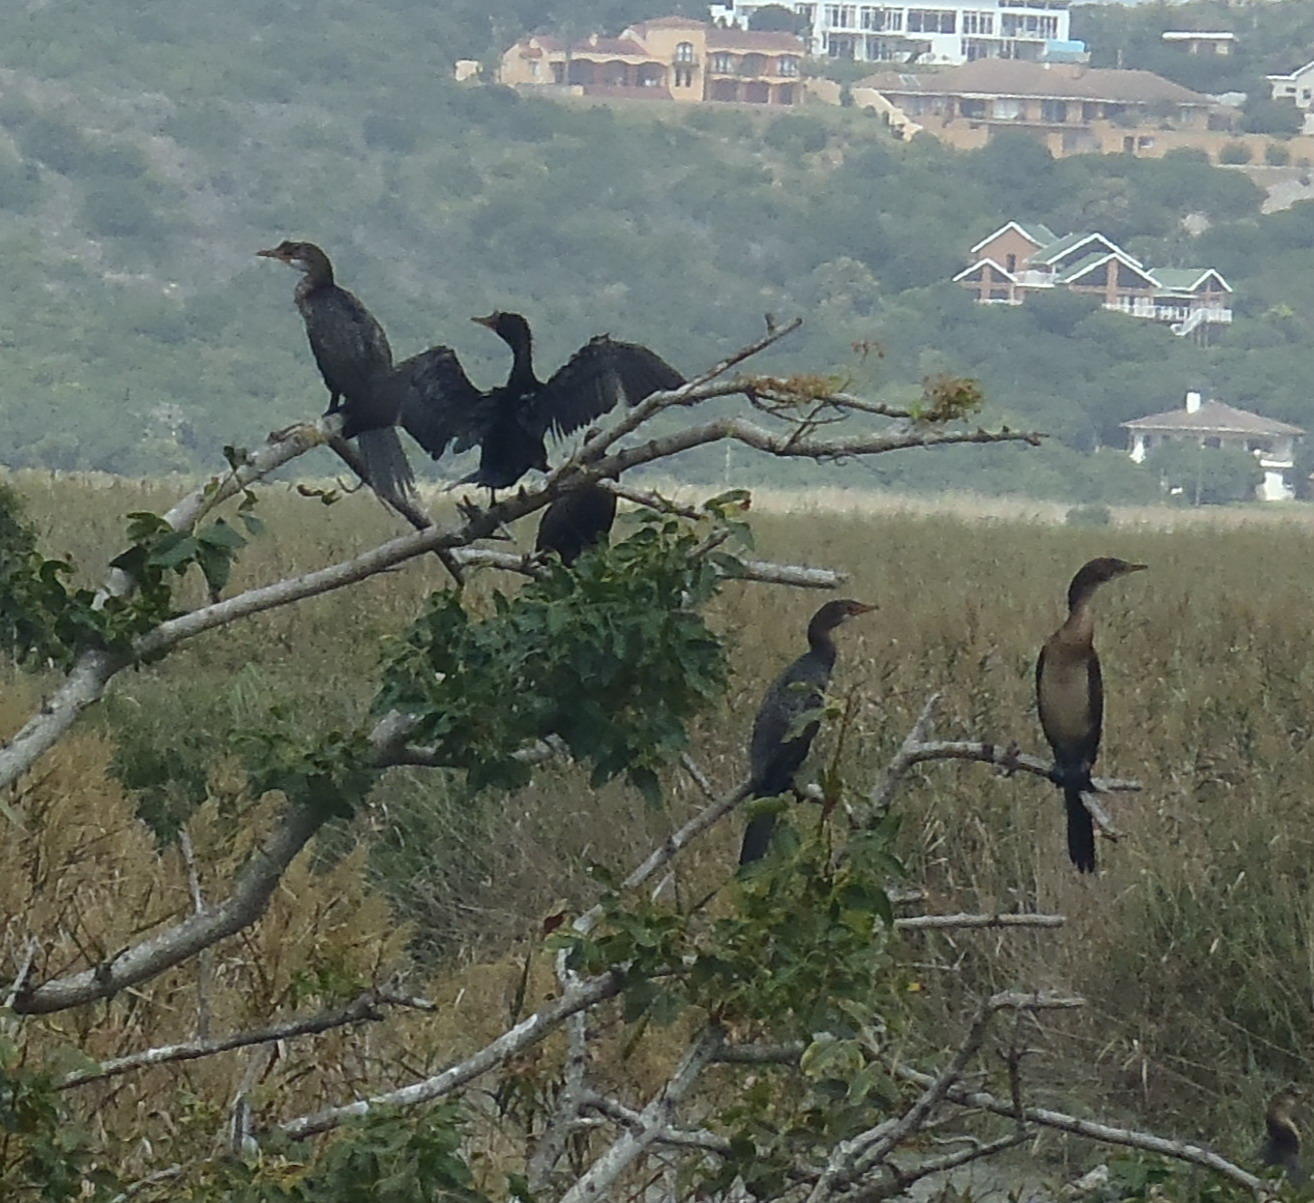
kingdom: Animalia
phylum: Chordata
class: Aves
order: Suliformes
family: Phalacrocoracidae
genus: Microcarbo
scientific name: Microcarbo africanus
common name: Long-tailed cormorant
